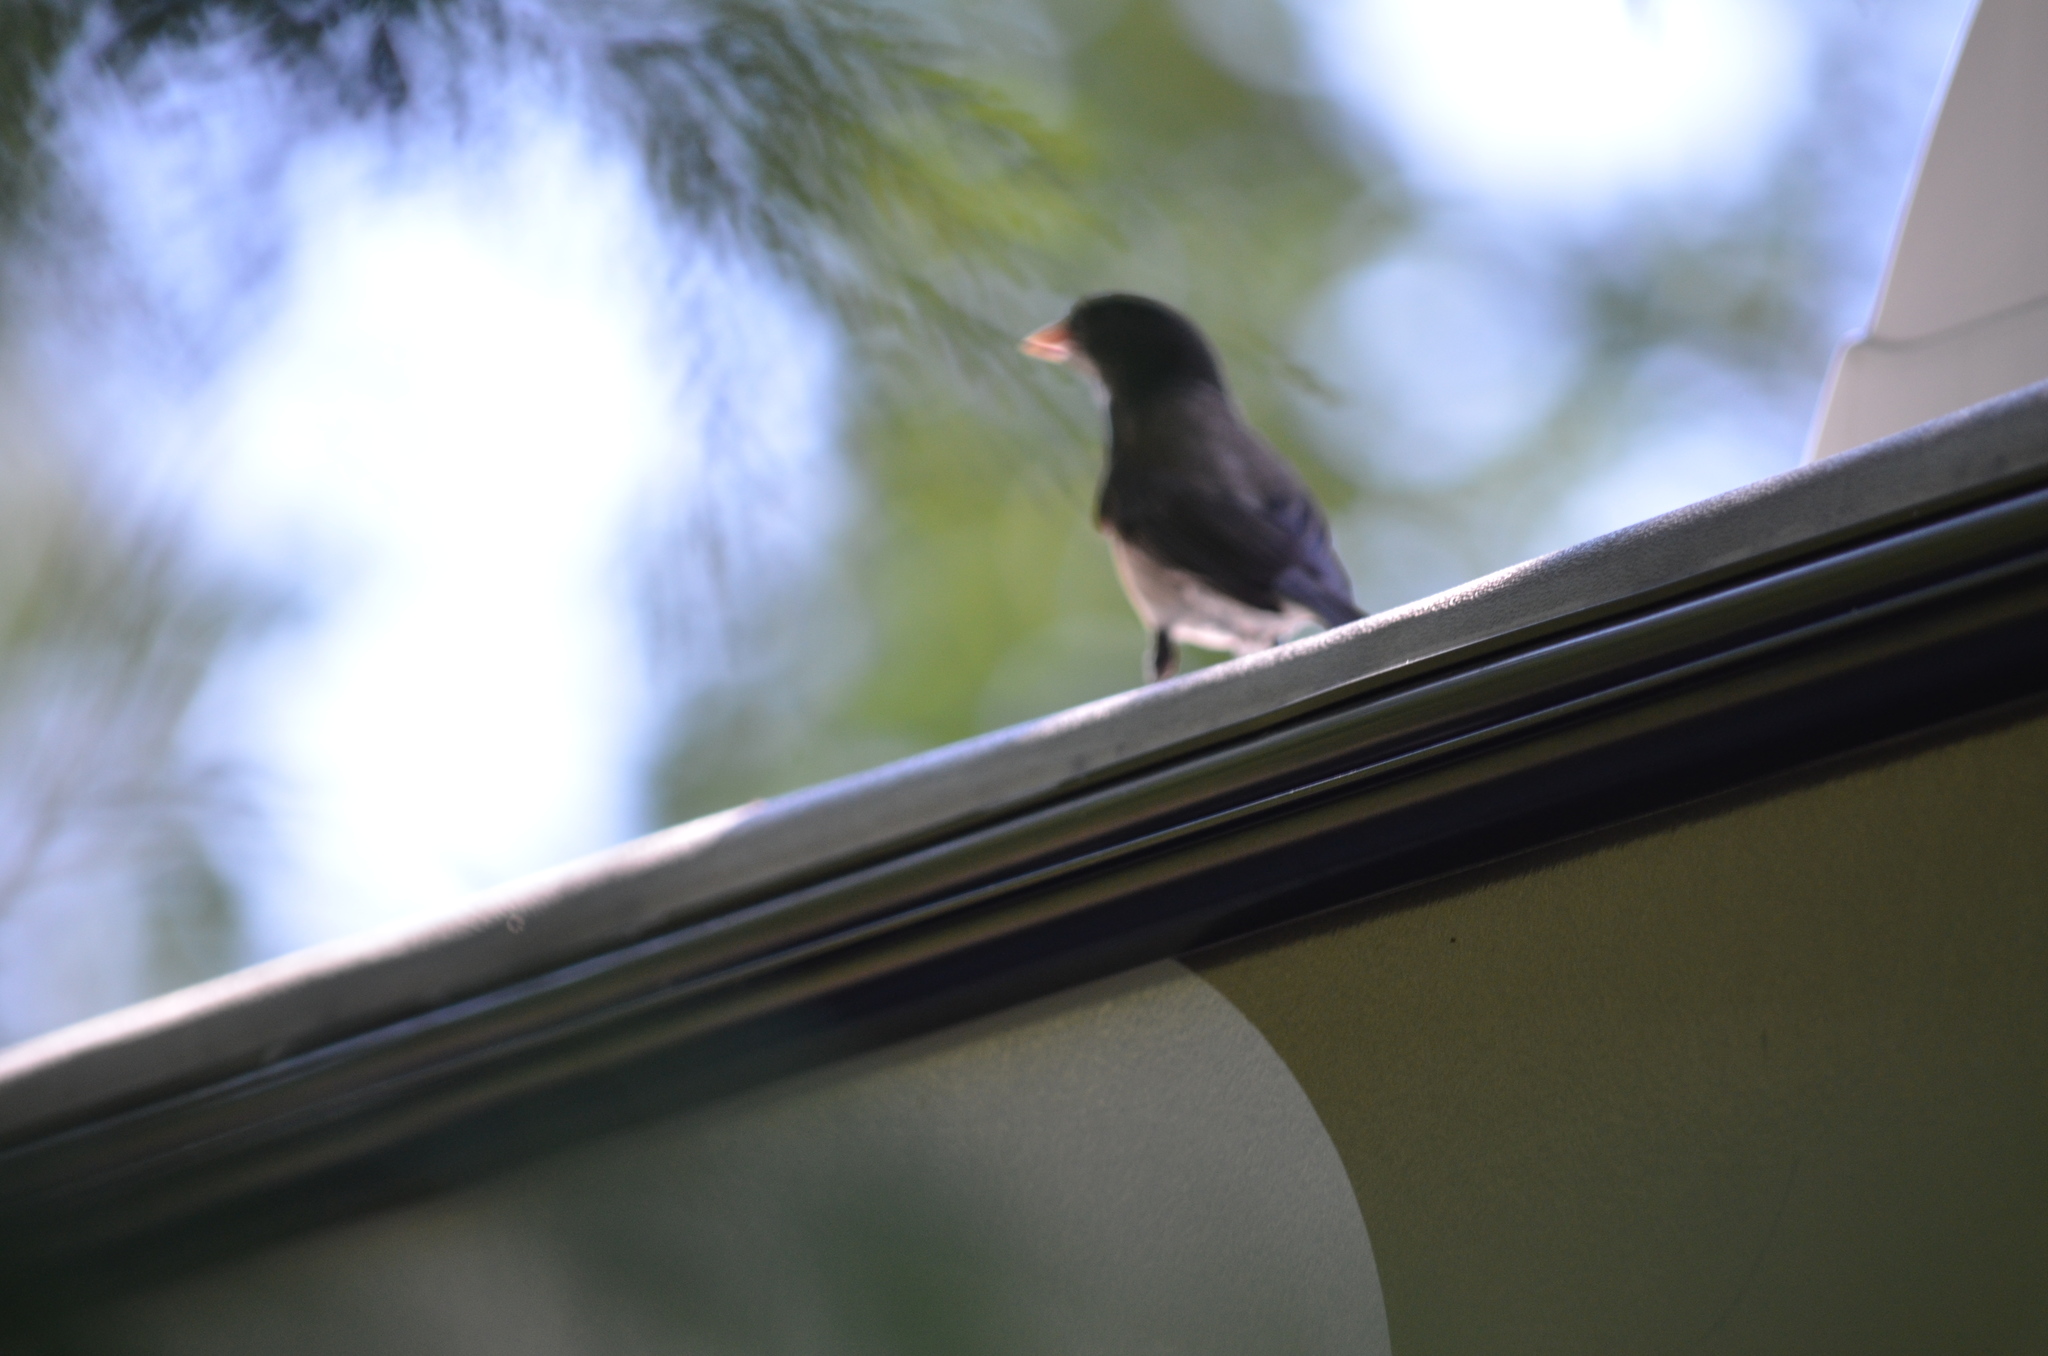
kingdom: Animalia
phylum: Chordata
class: Aves
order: Passeriformes
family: Passerellidae
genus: Junco
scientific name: Junco hyemalis
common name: Dark-eyed junco
